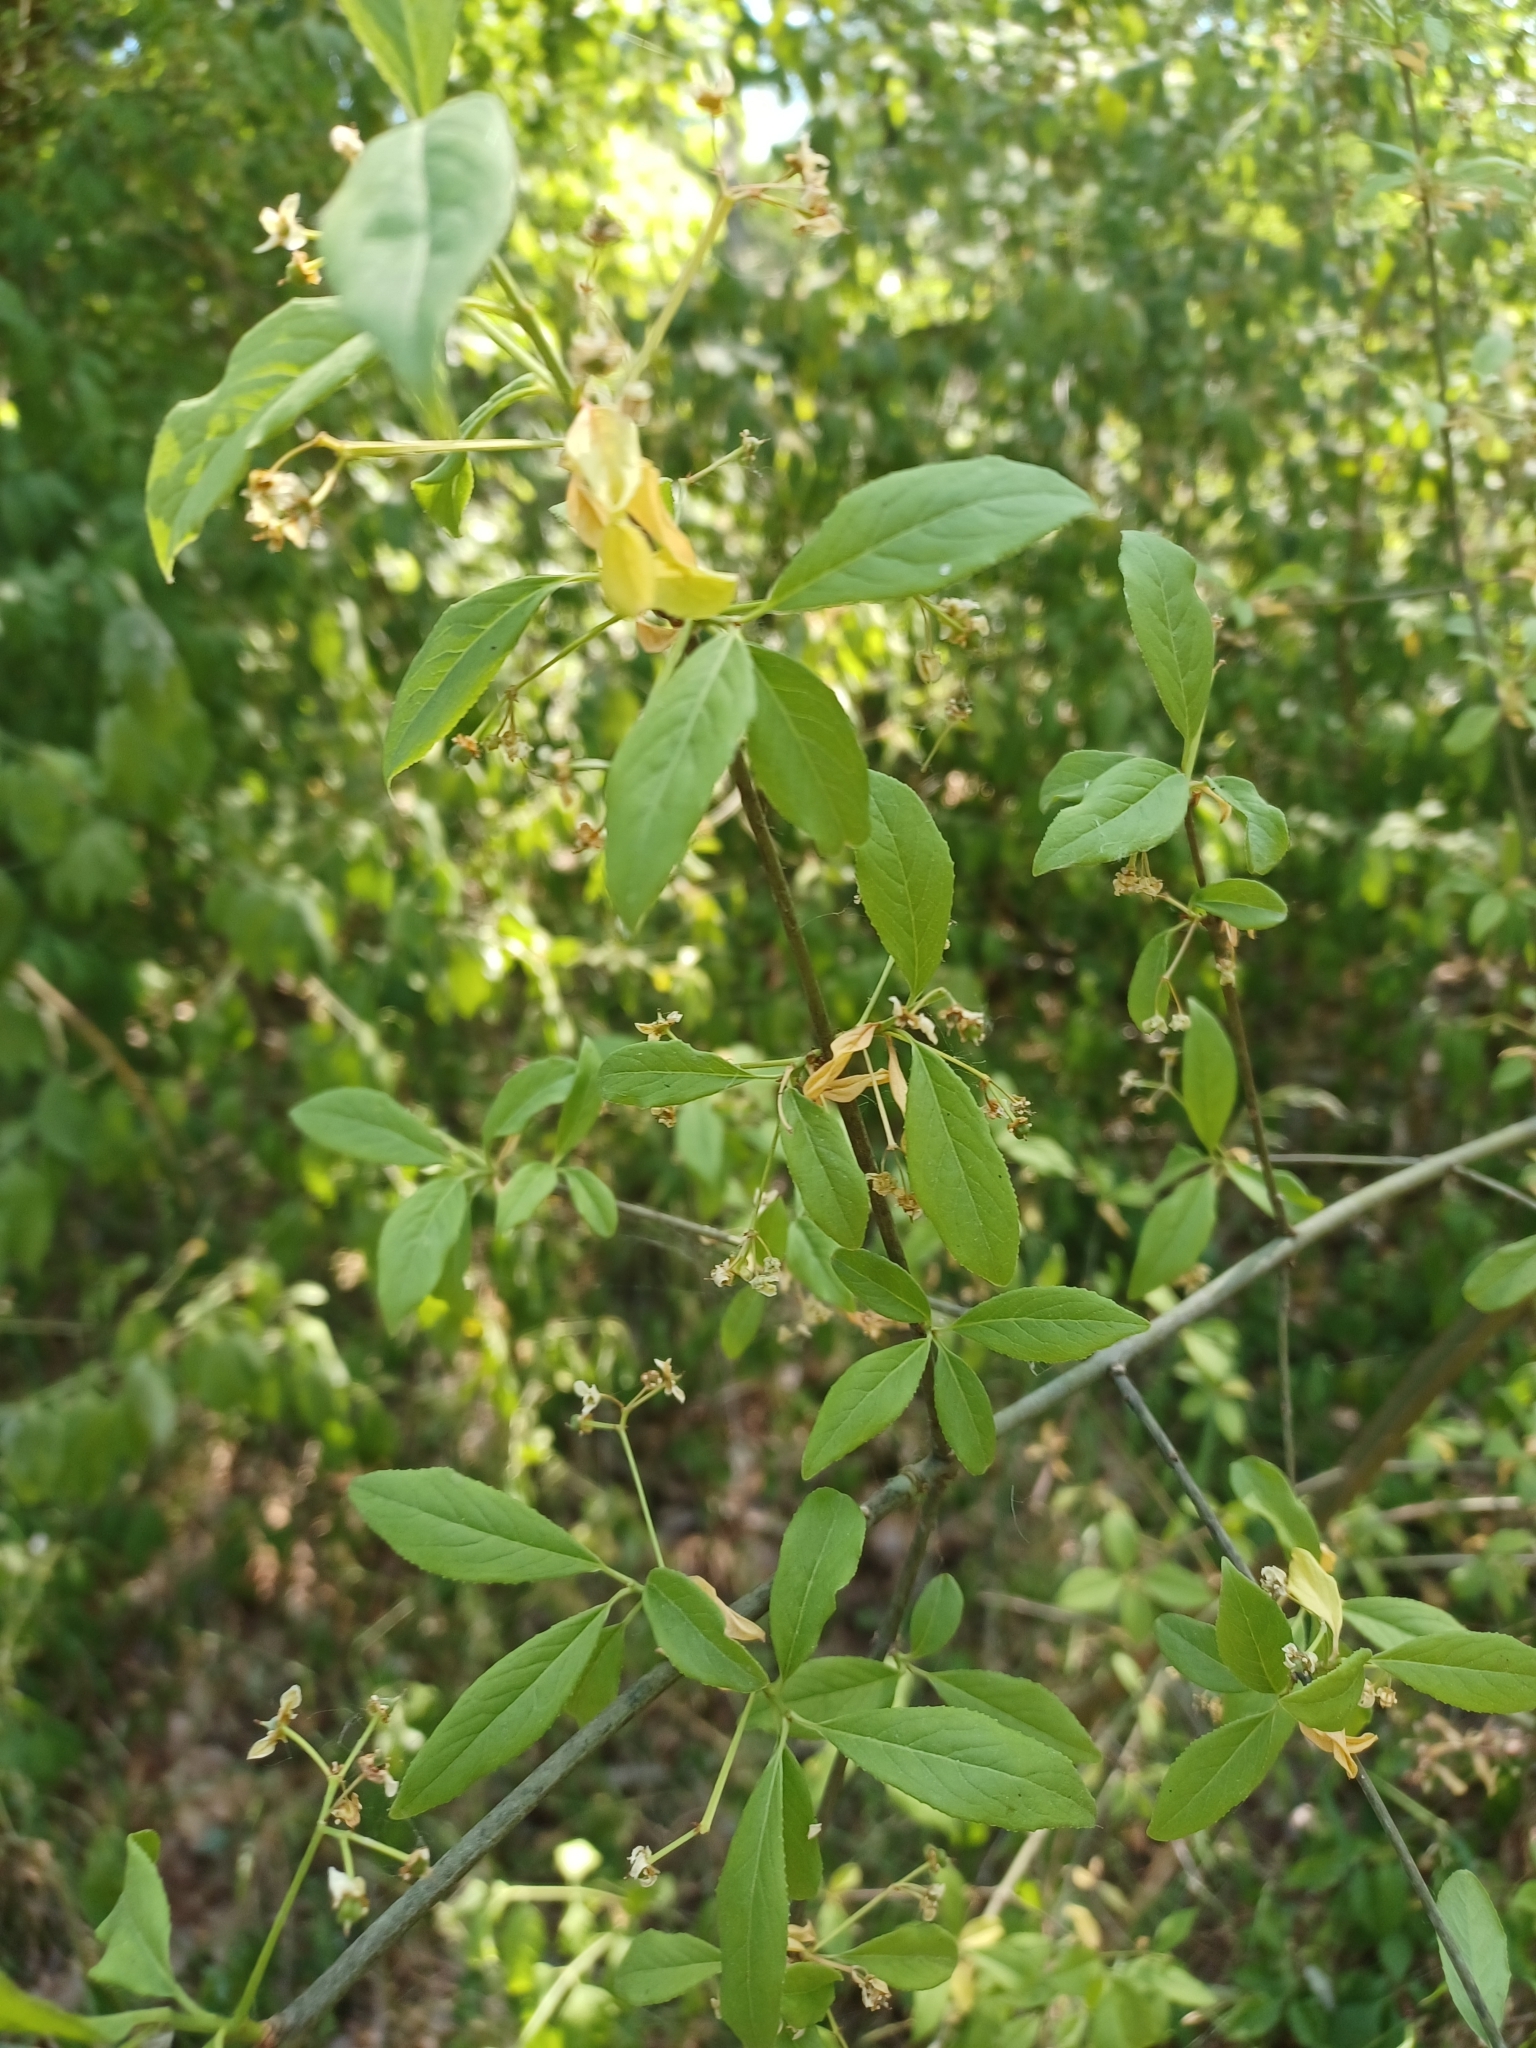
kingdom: Plantae
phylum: Tracheophyta
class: Magnoliopsida
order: Celastrales
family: Celastraceae
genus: Euonymus
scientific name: Euonymus europaeus
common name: Spindle
